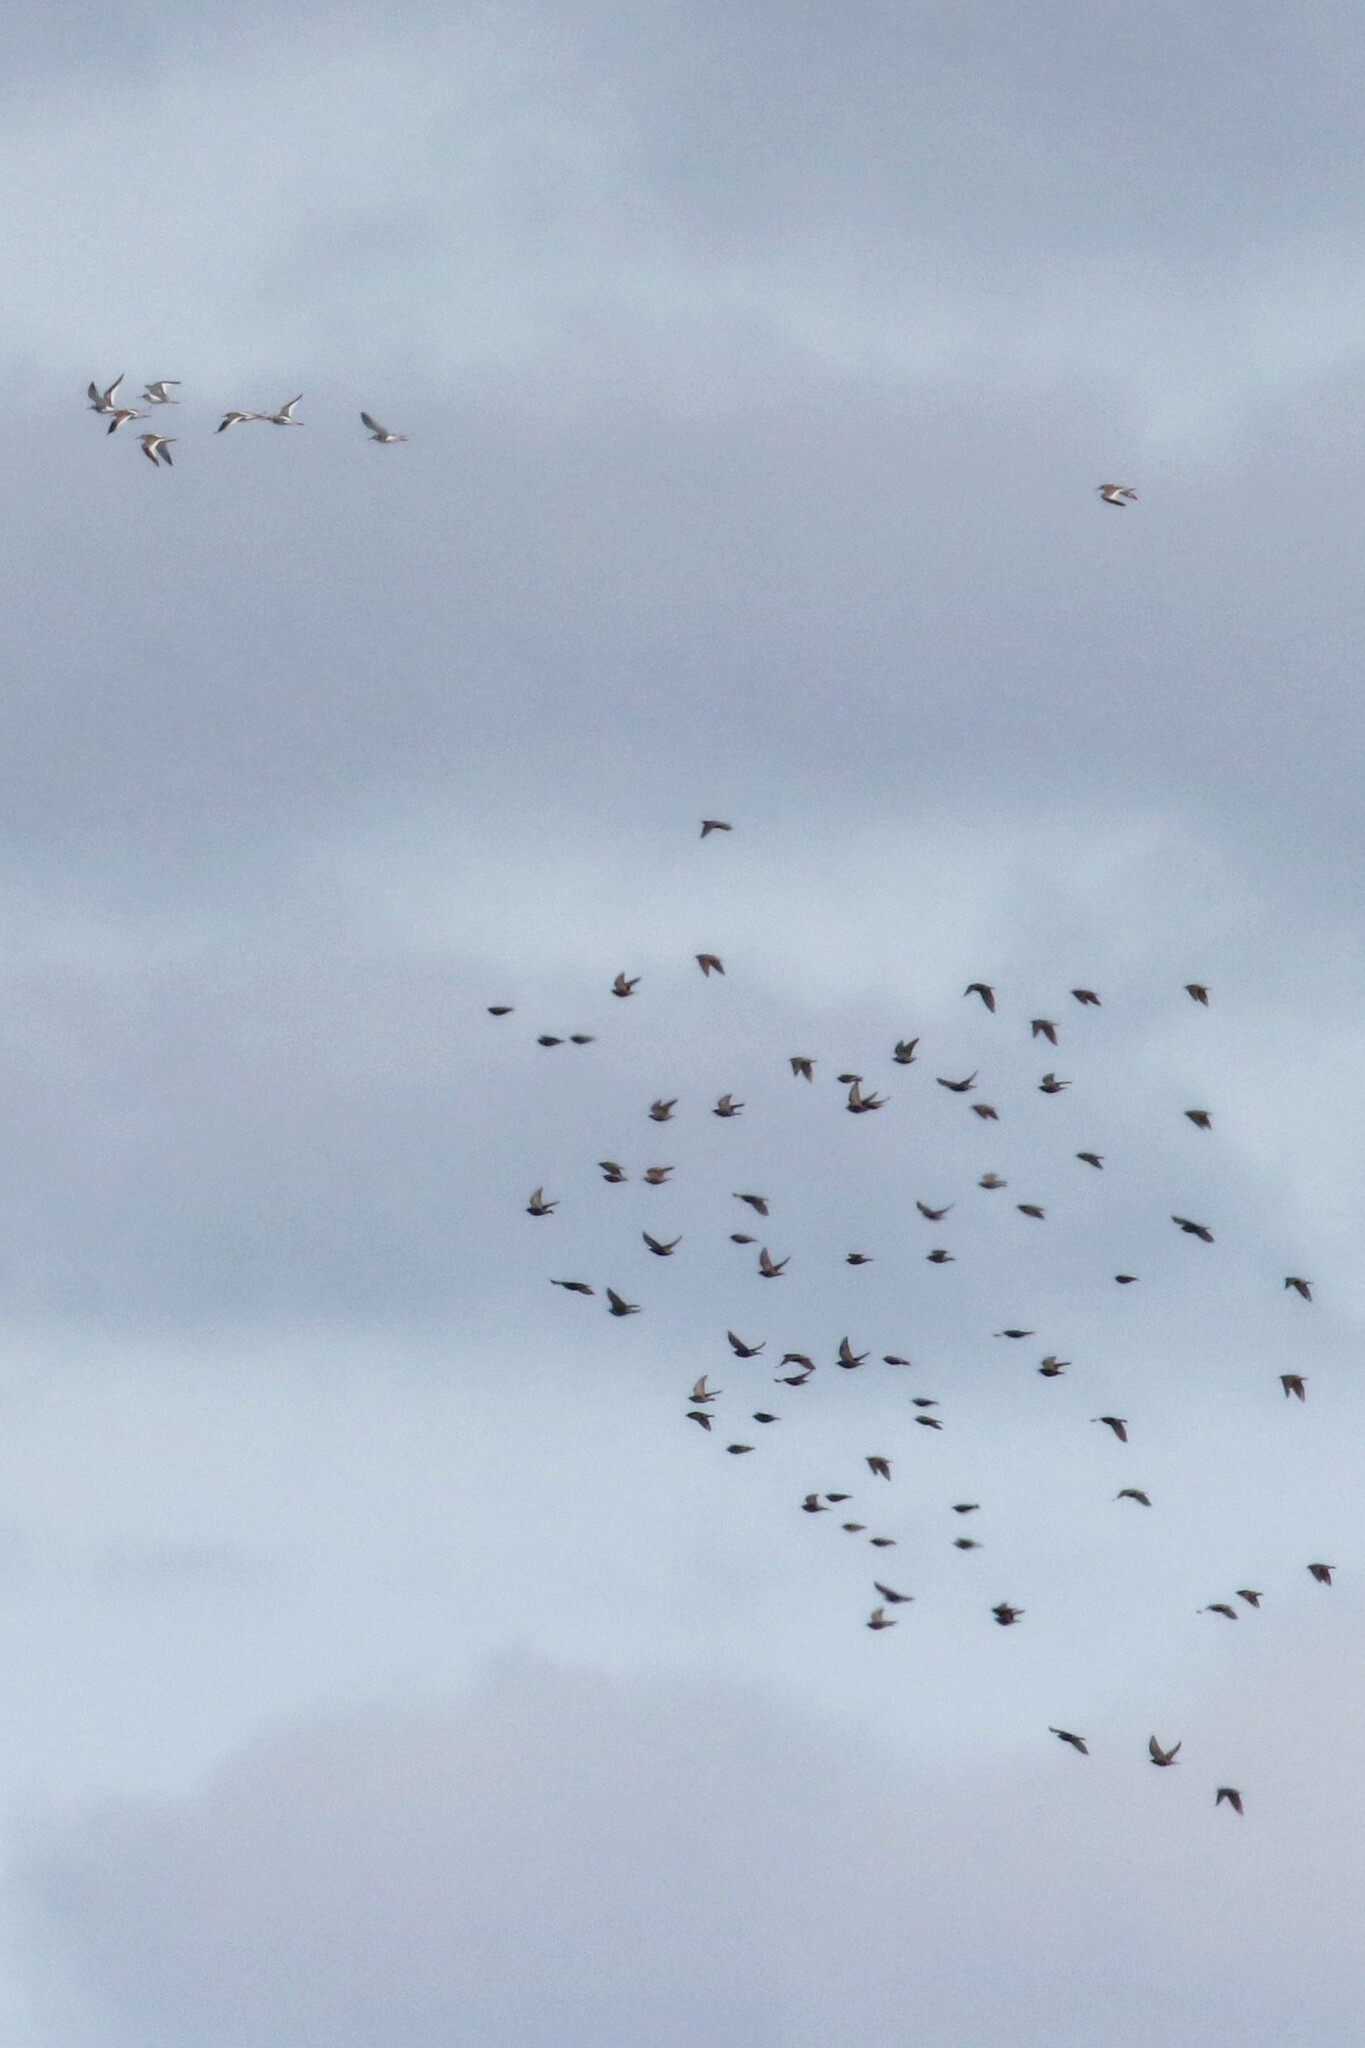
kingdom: Animalia
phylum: Chordata
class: Aves
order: Charadriiformes
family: Scolopacidae
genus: Tringa
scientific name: Tringa totanus
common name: Common redshank
